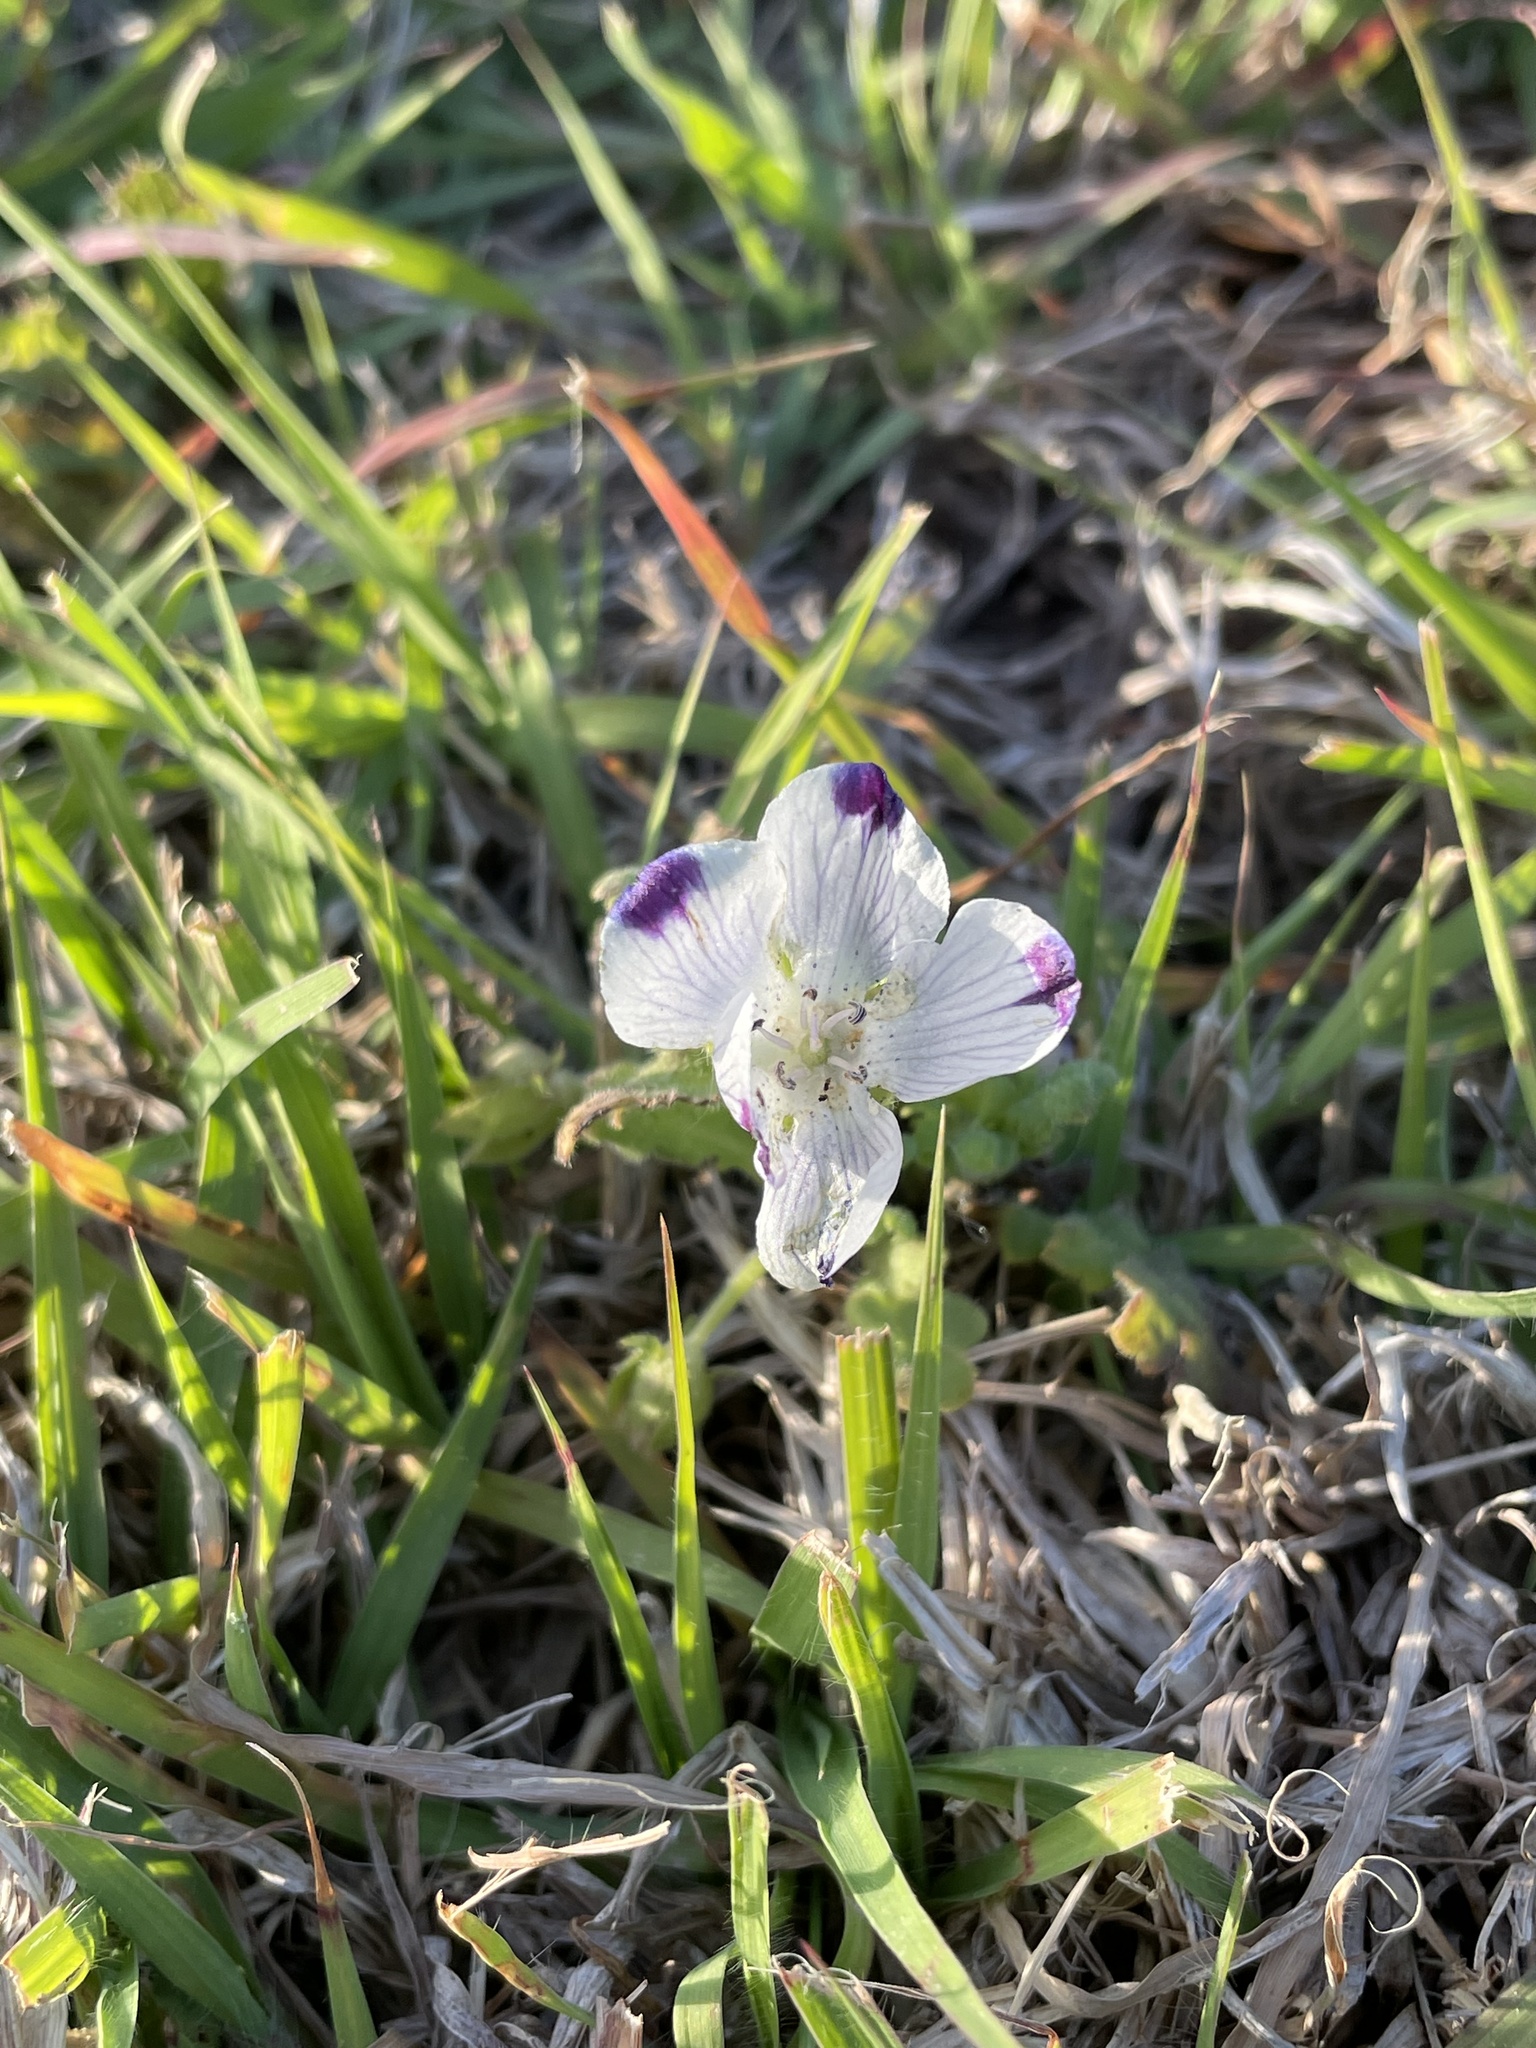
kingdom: Plantae
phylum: Tracheophyta
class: Magnoliopsida
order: Boraginales
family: Hydrophyllaceae
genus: Nemophila
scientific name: Nemophila maculata
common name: Fivespot
